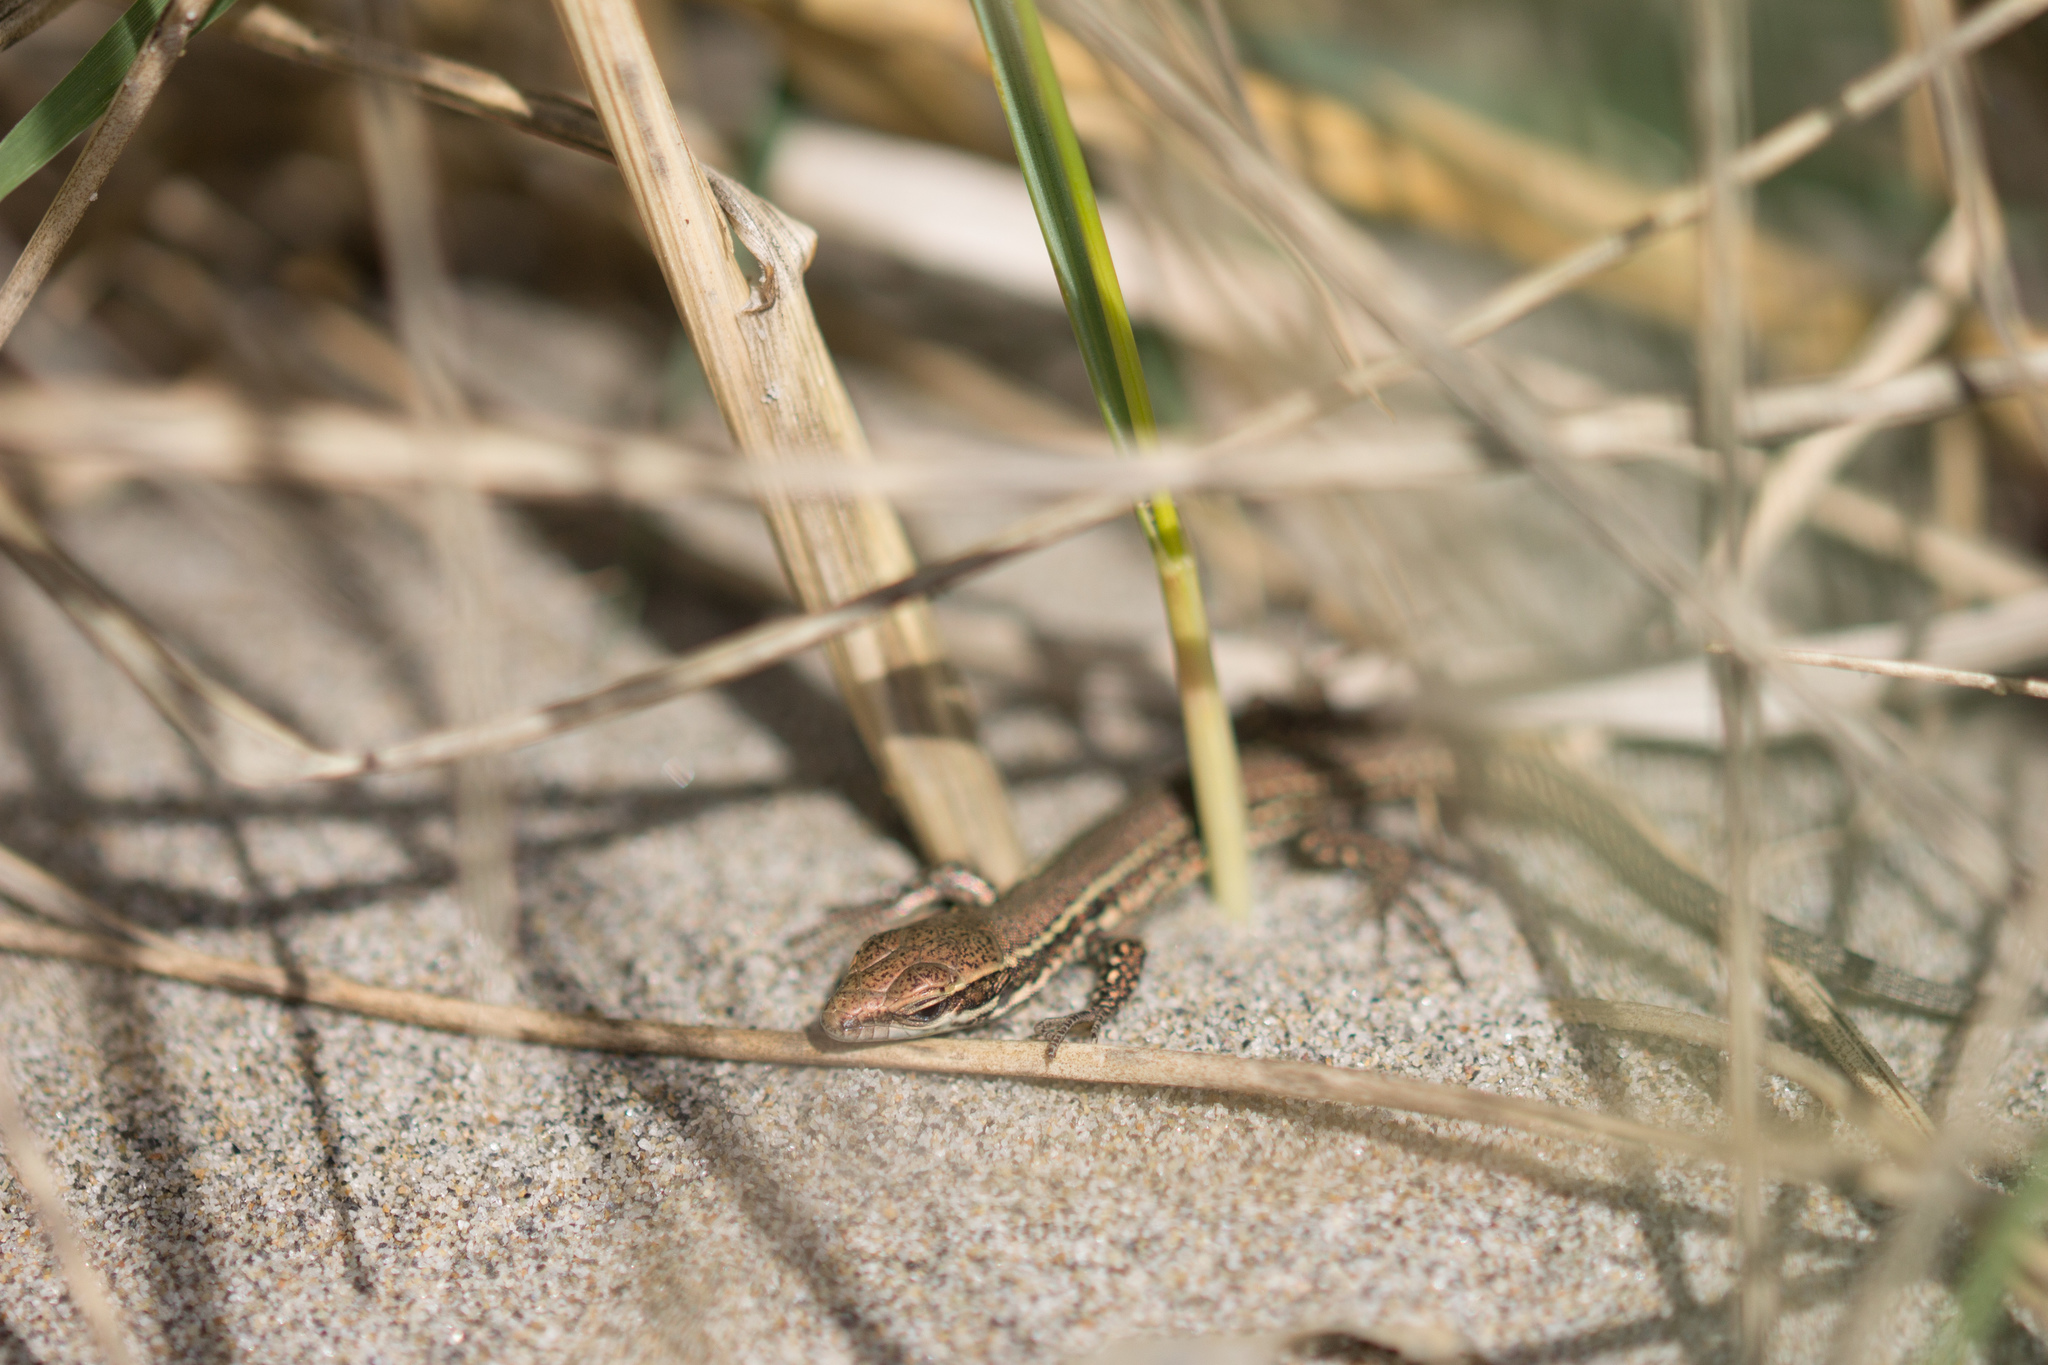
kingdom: Animalia
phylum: Chordata
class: Squamata
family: Lacertidae
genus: Podarcis
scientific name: Podarcis muralis
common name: Common wall lizard
